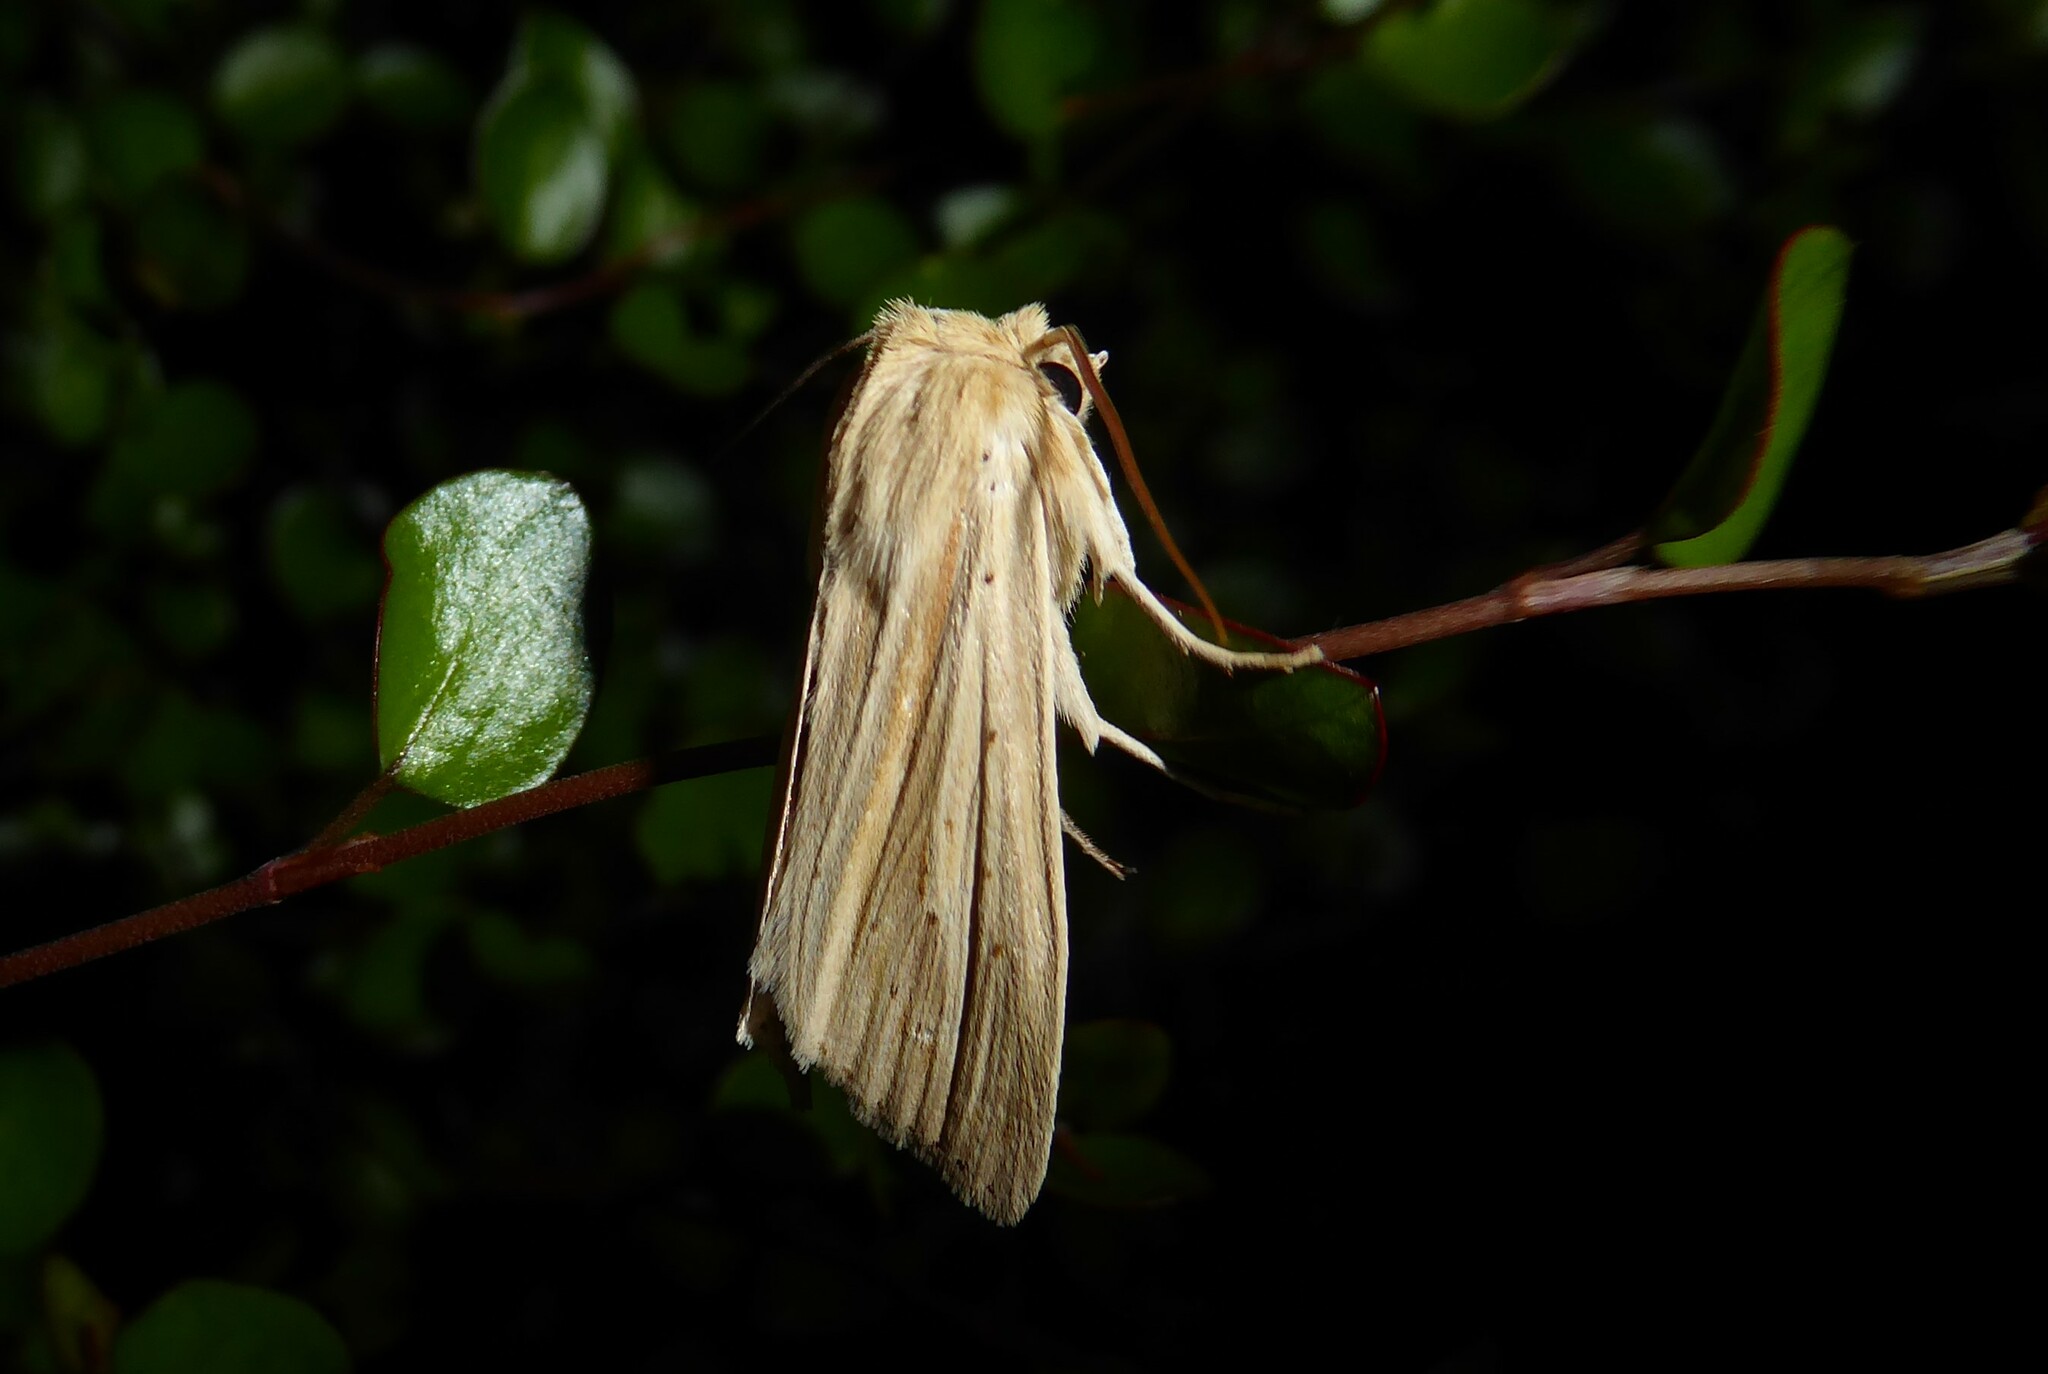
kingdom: Animalia
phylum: Arthropoda
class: Insecta
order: Lepidoptera
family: Noctuidae
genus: Ichneutica
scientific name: Ichneutica semivittata
